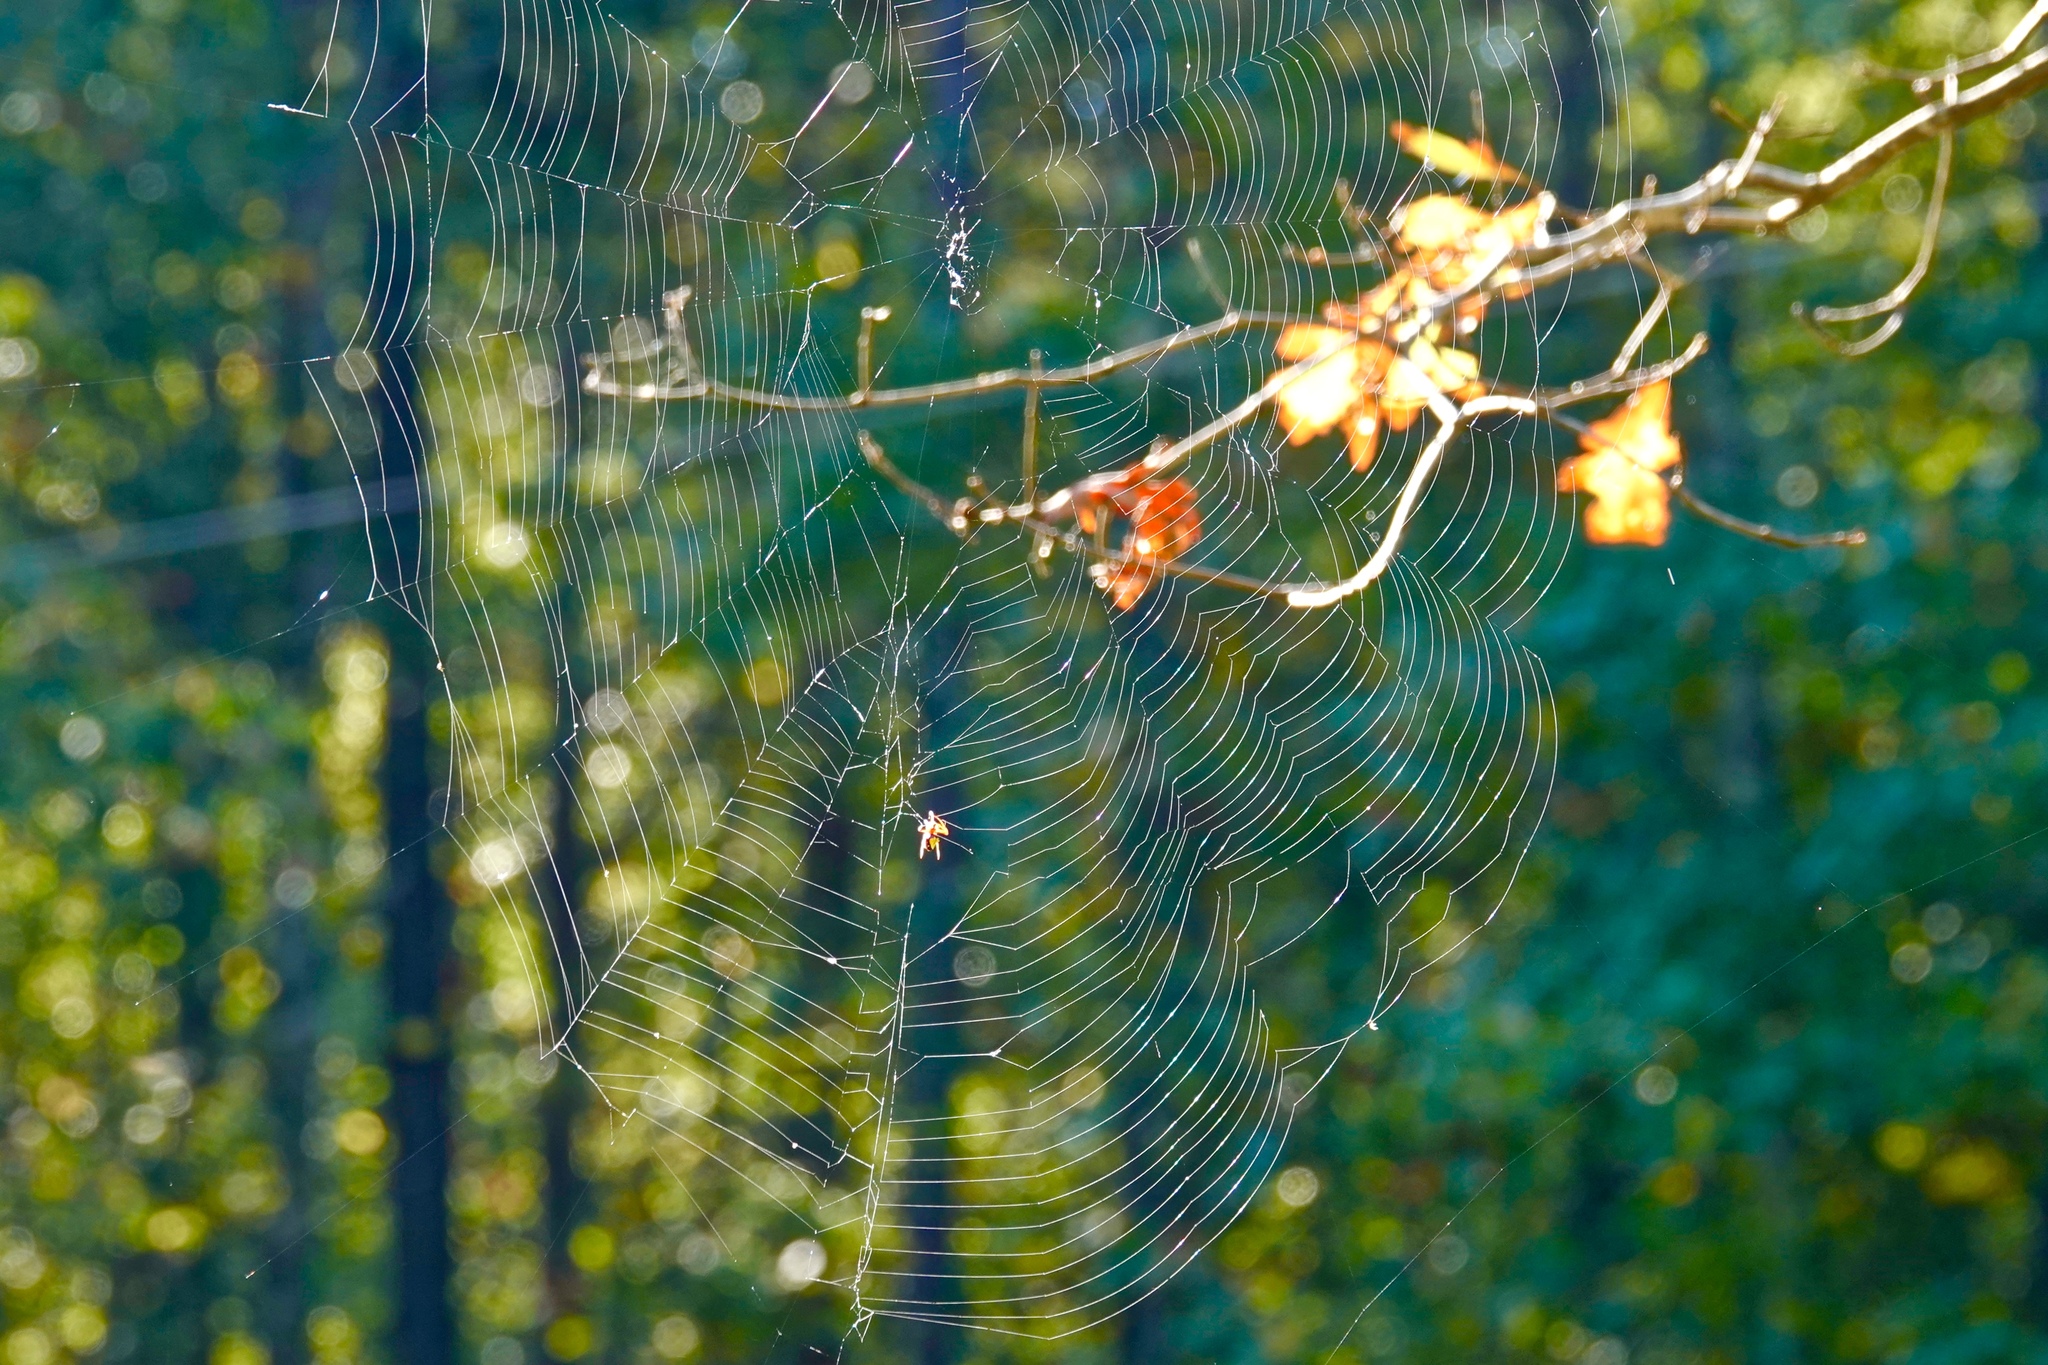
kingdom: Animalia
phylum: Arthropoda
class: Arachnida
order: Araneae
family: Araneidae
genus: Verrucosa
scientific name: Verrucosa arenata
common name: Orb weavers
